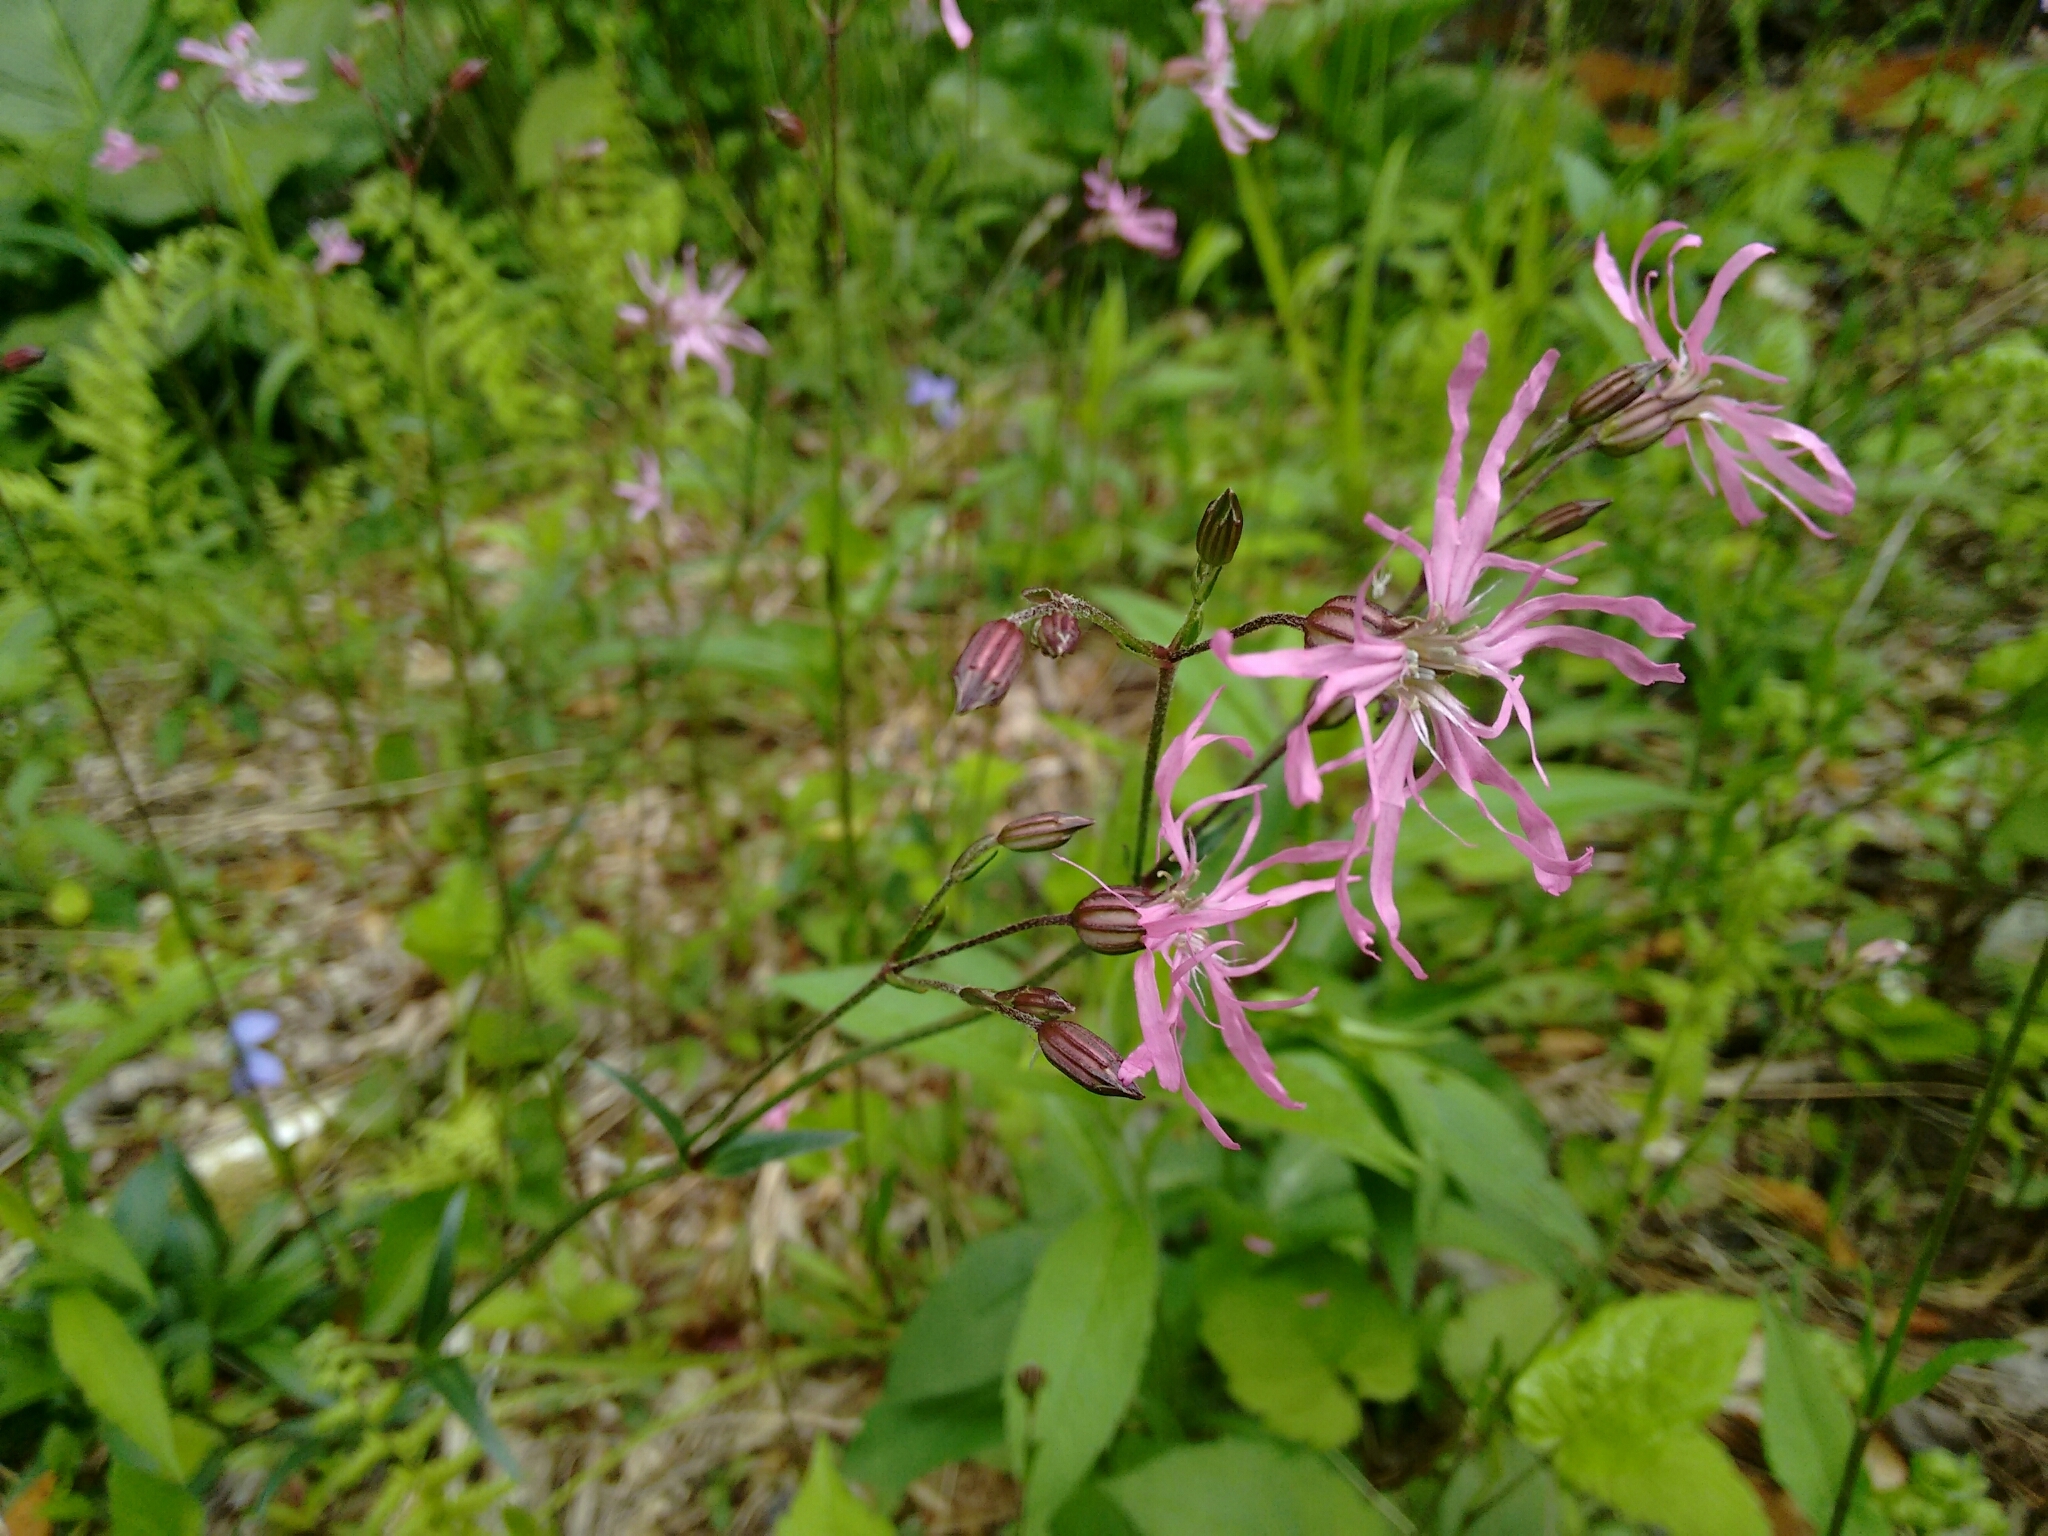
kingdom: Plantae
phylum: Tracheophyta
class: Magnoliopsida
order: Caryophyllales
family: Caryophyllaceae
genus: Silene
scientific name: Silene flos-cuculi
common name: Ragged-robin
